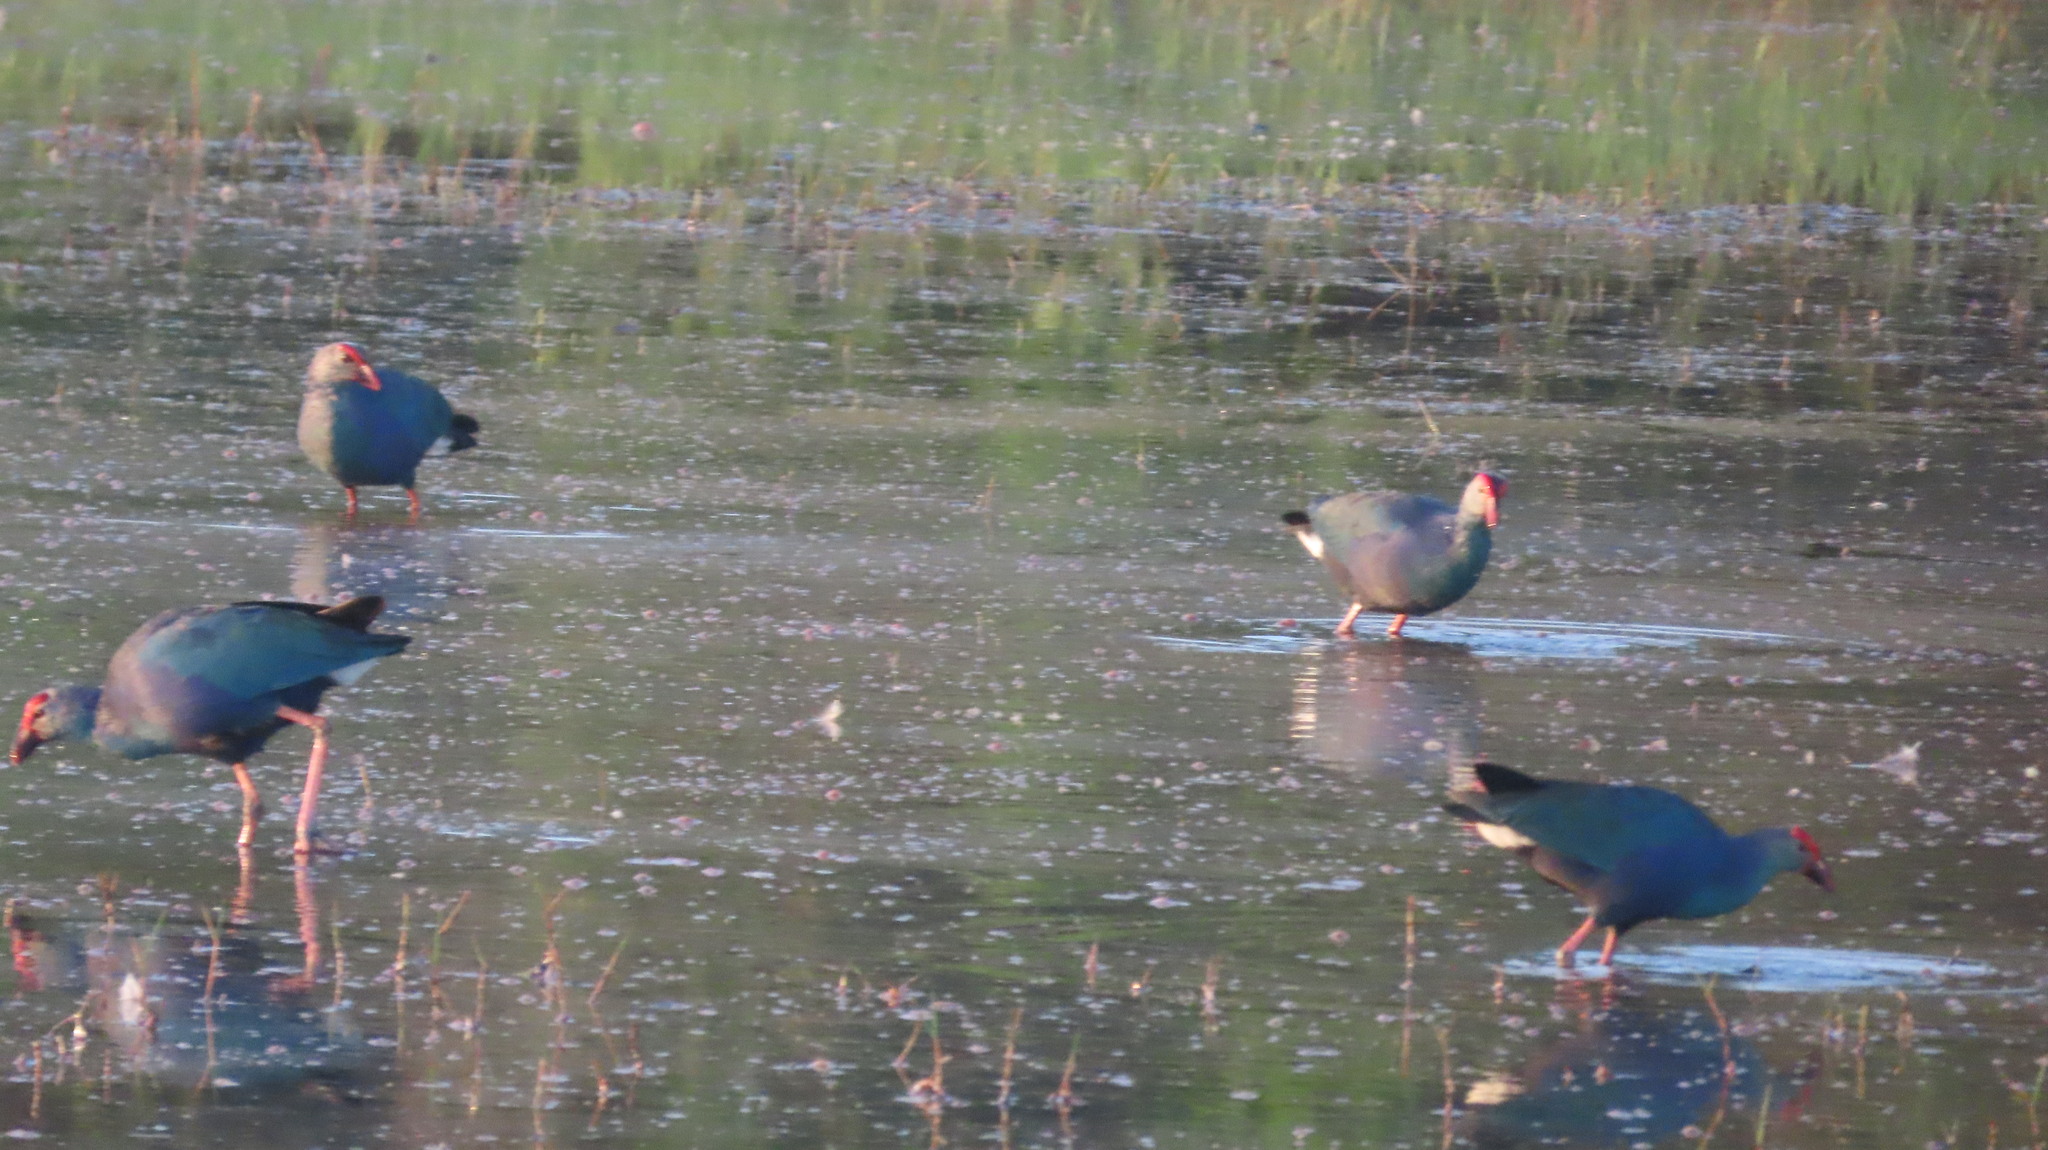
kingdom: Animalia
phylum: Chordata
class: Aves
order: Gruiformes
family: Rallidae
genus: Porphyrio
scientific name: Porphyrio porphyrio
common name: Purple swamphen
